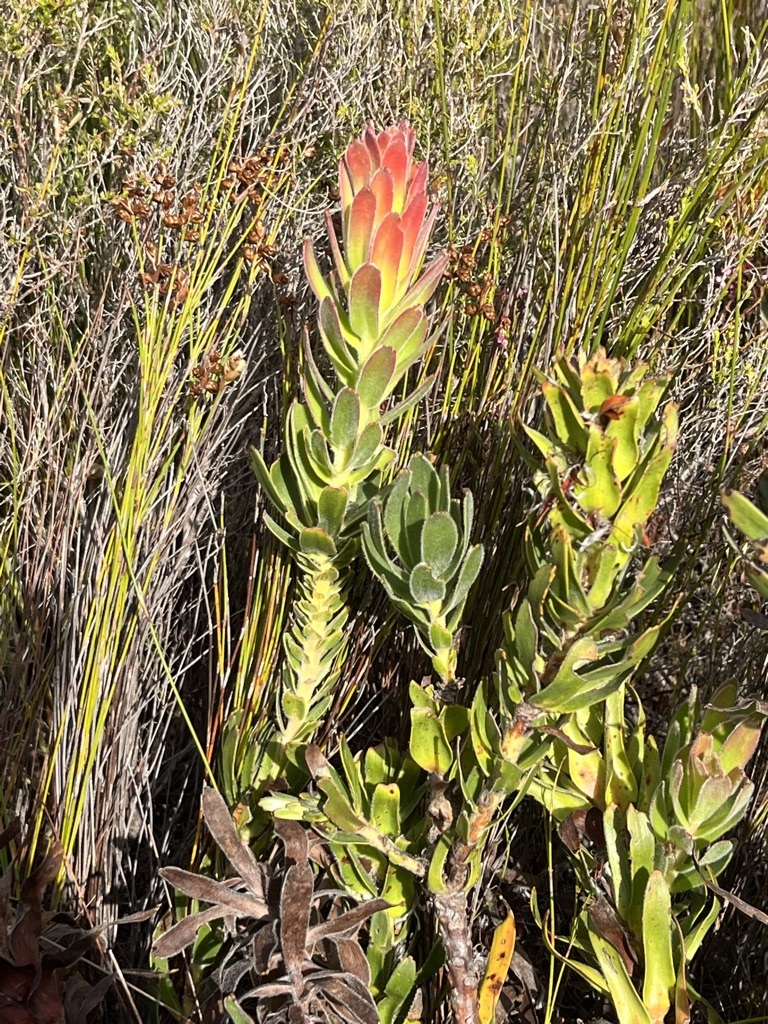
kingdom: Plantae
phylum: Tracheophyta
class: Magnoliopsida
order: Proteales
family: Proteaceae
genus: Mimetes
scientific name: Mimetes cucullatus
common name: Common pagoda
